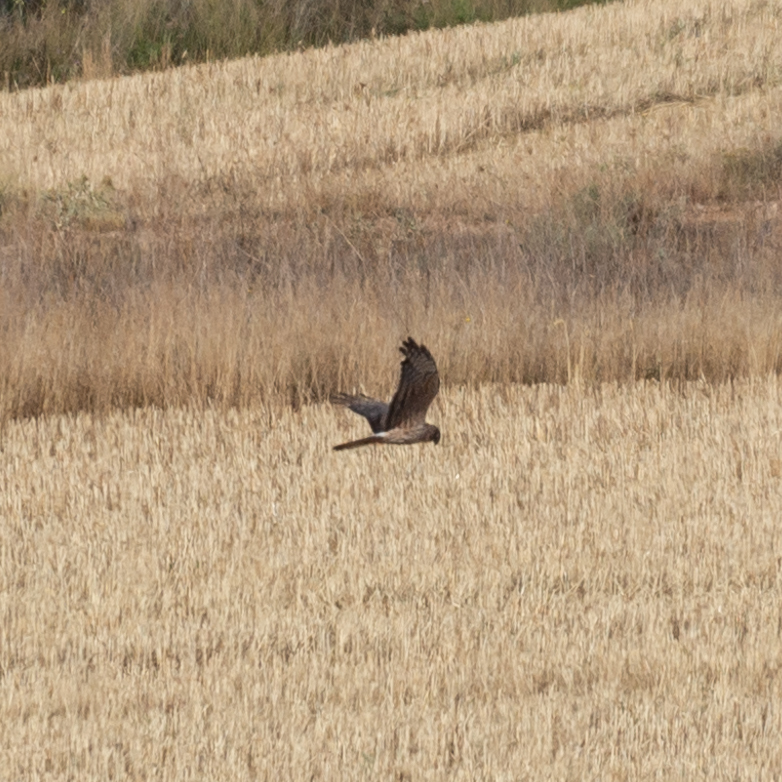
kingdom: Animalia
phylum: Chordata
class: Aves
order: Accipitriformes
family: Accipitridae
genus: Circus
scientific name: Circus pygargus
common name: Montagu's harrier
